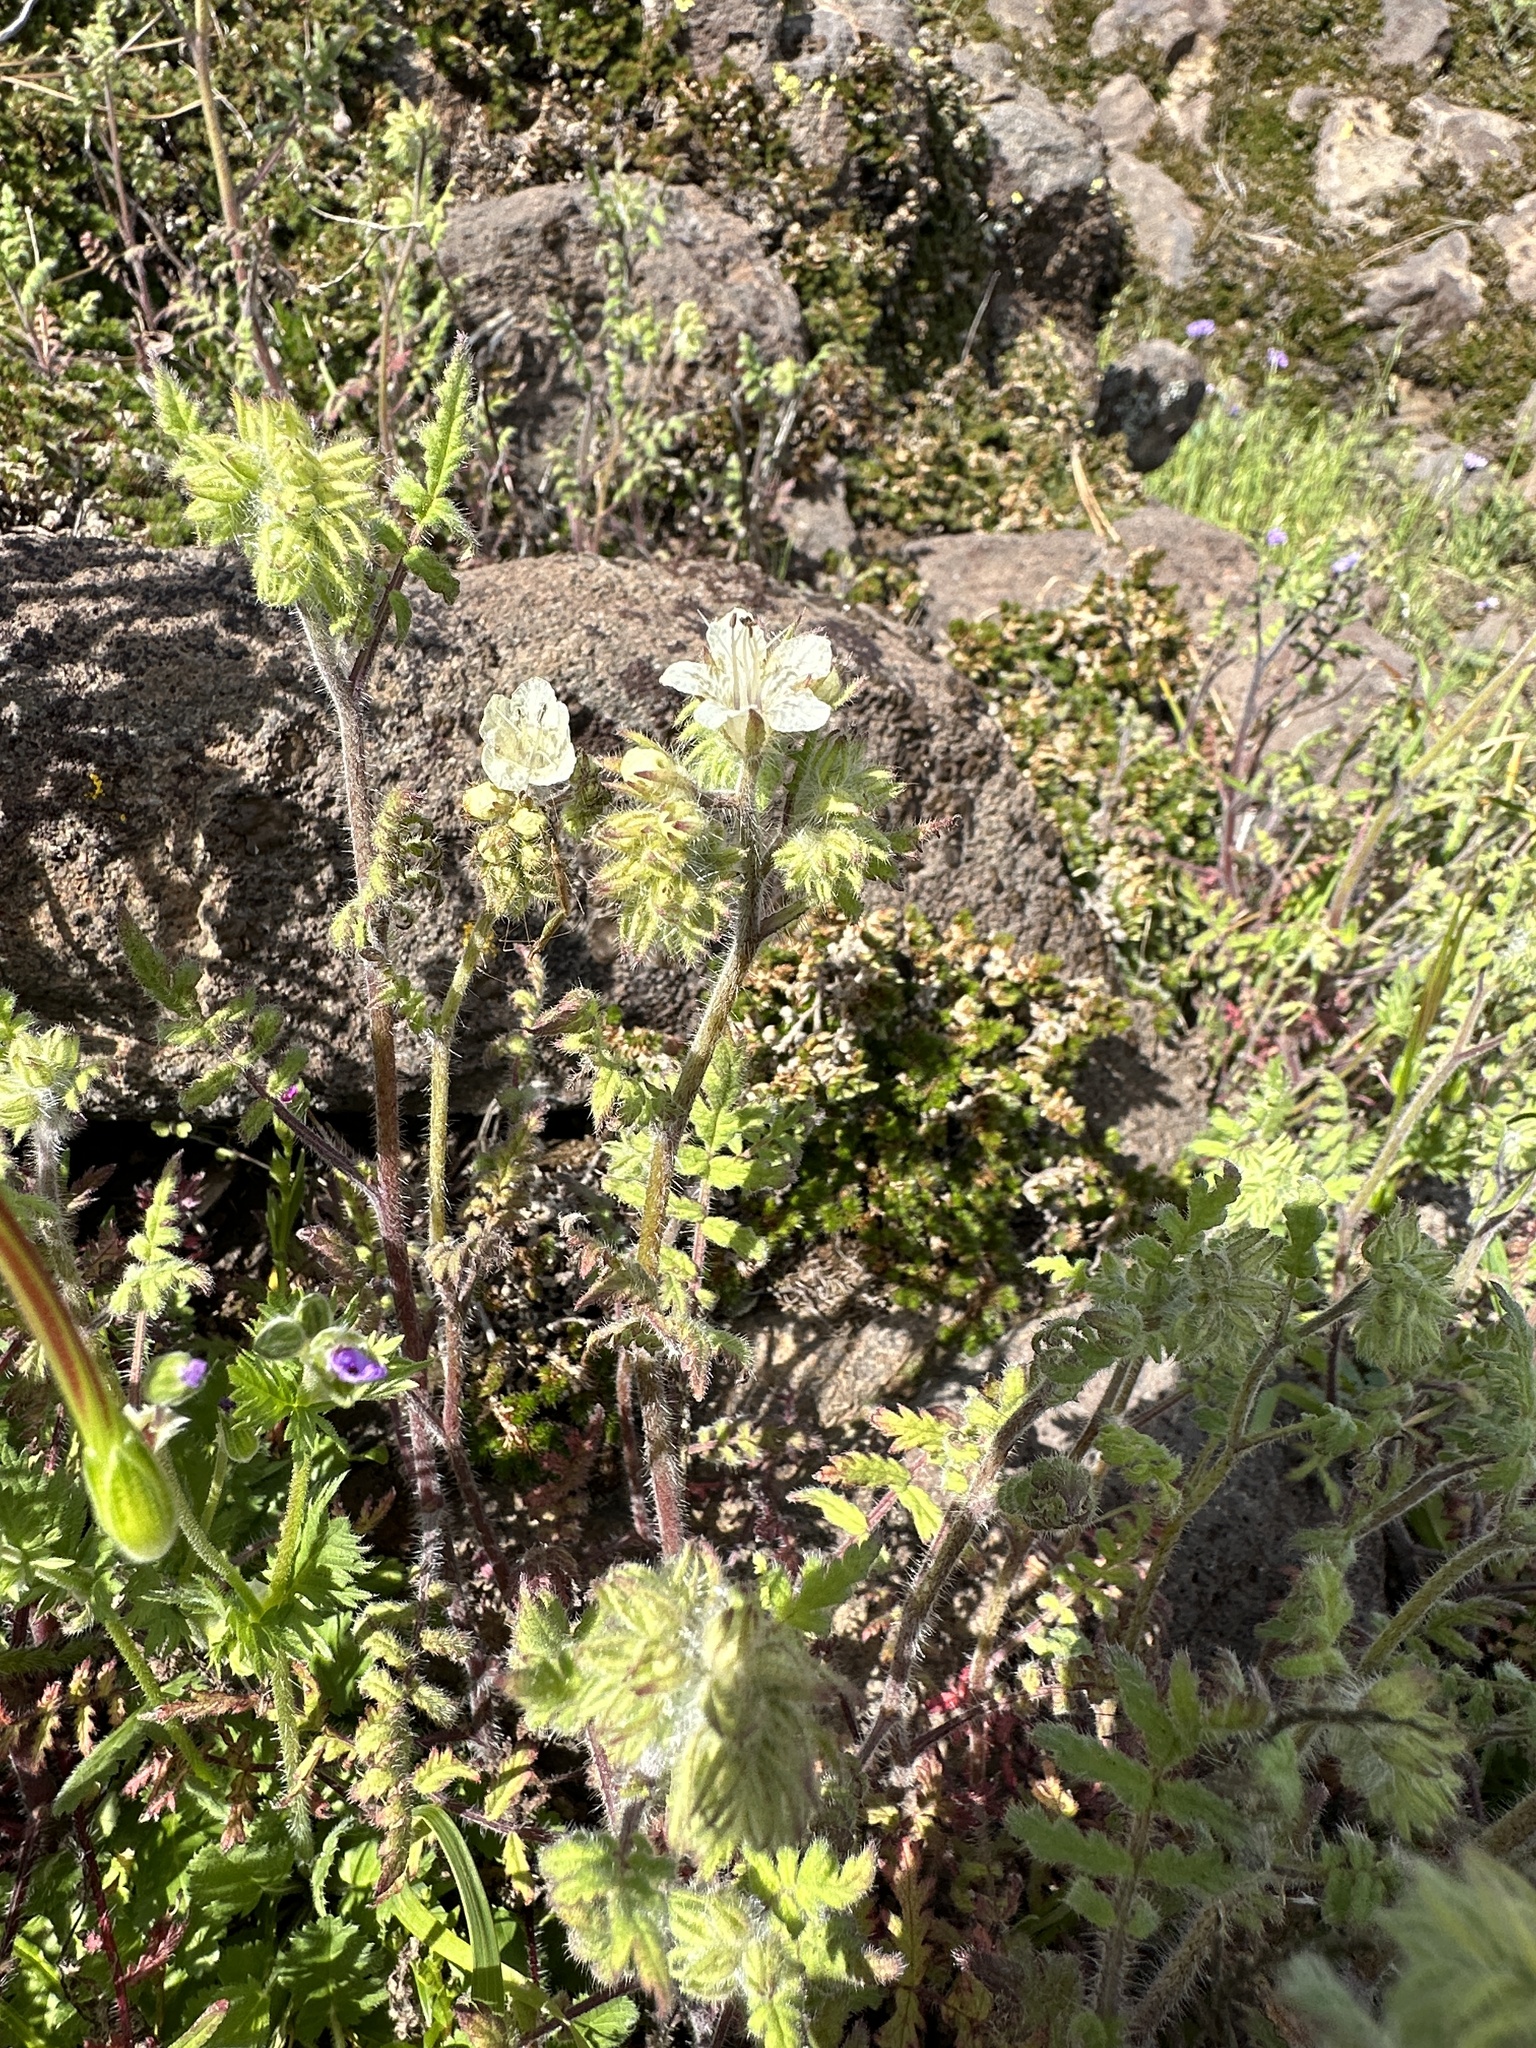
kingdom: Plantae
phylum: Tracheophyta
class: Magnoliopsida
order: Boraginales
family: Hydrophyllaceae
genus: Phacelia
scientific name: Phacelia cicutaria
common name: Caterpillar phacelia
